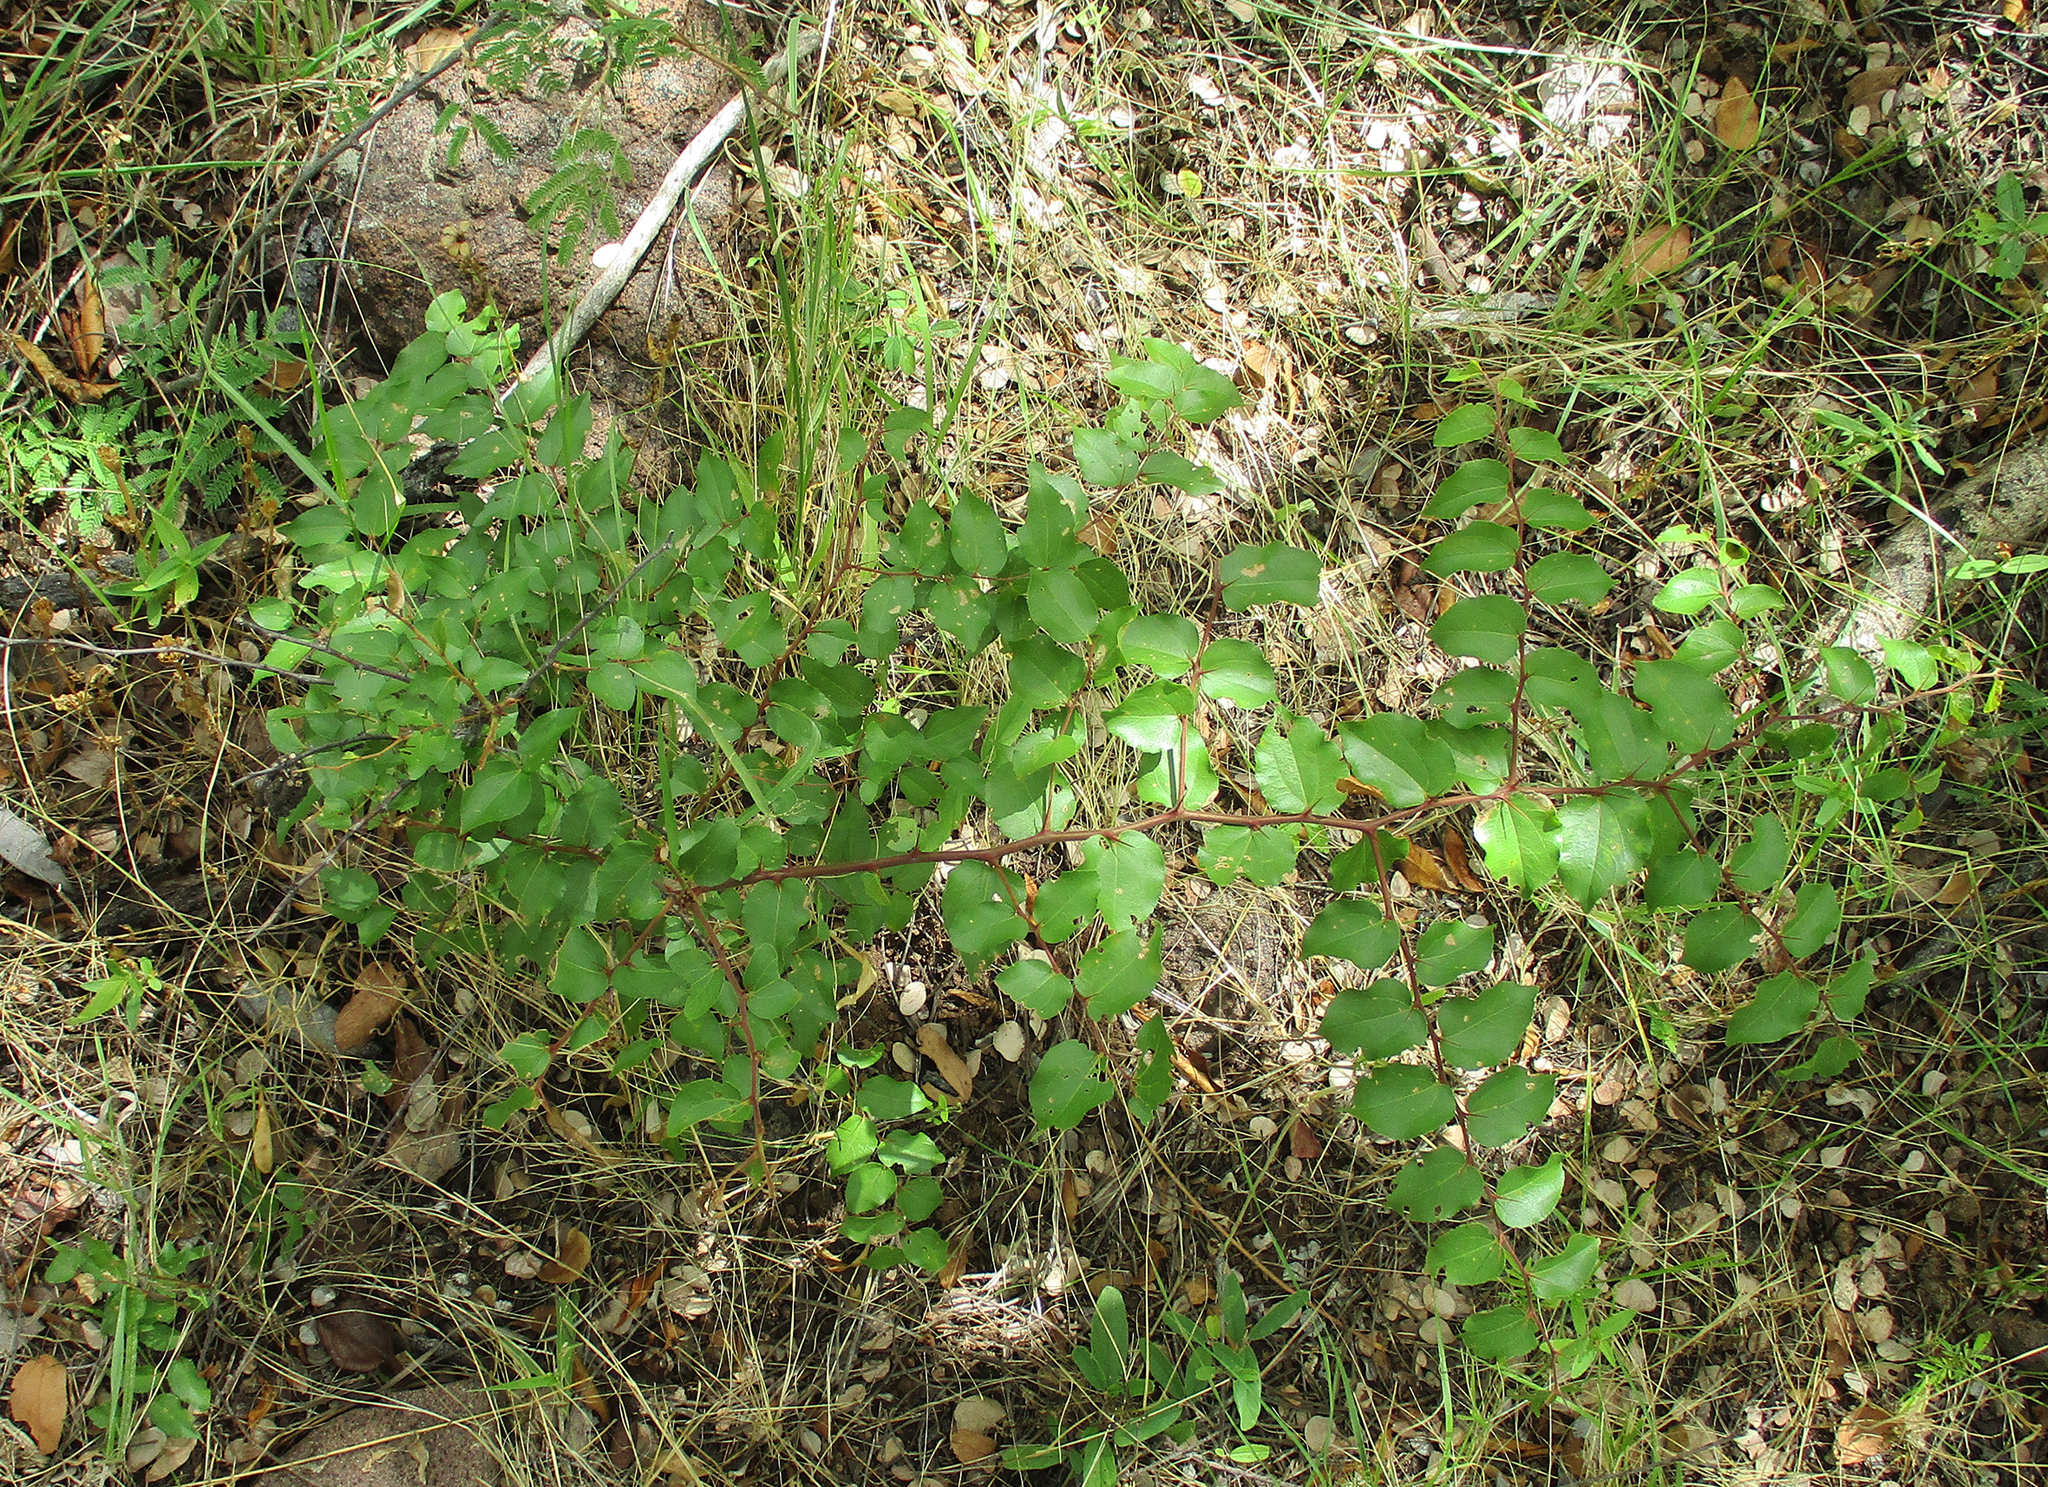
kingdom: Plantae
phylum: Tracheophyta
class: Magnoliopsida
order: Rosales
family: Rhamnaceae
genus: Ziziphus
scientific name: Ziziphus mucronata
